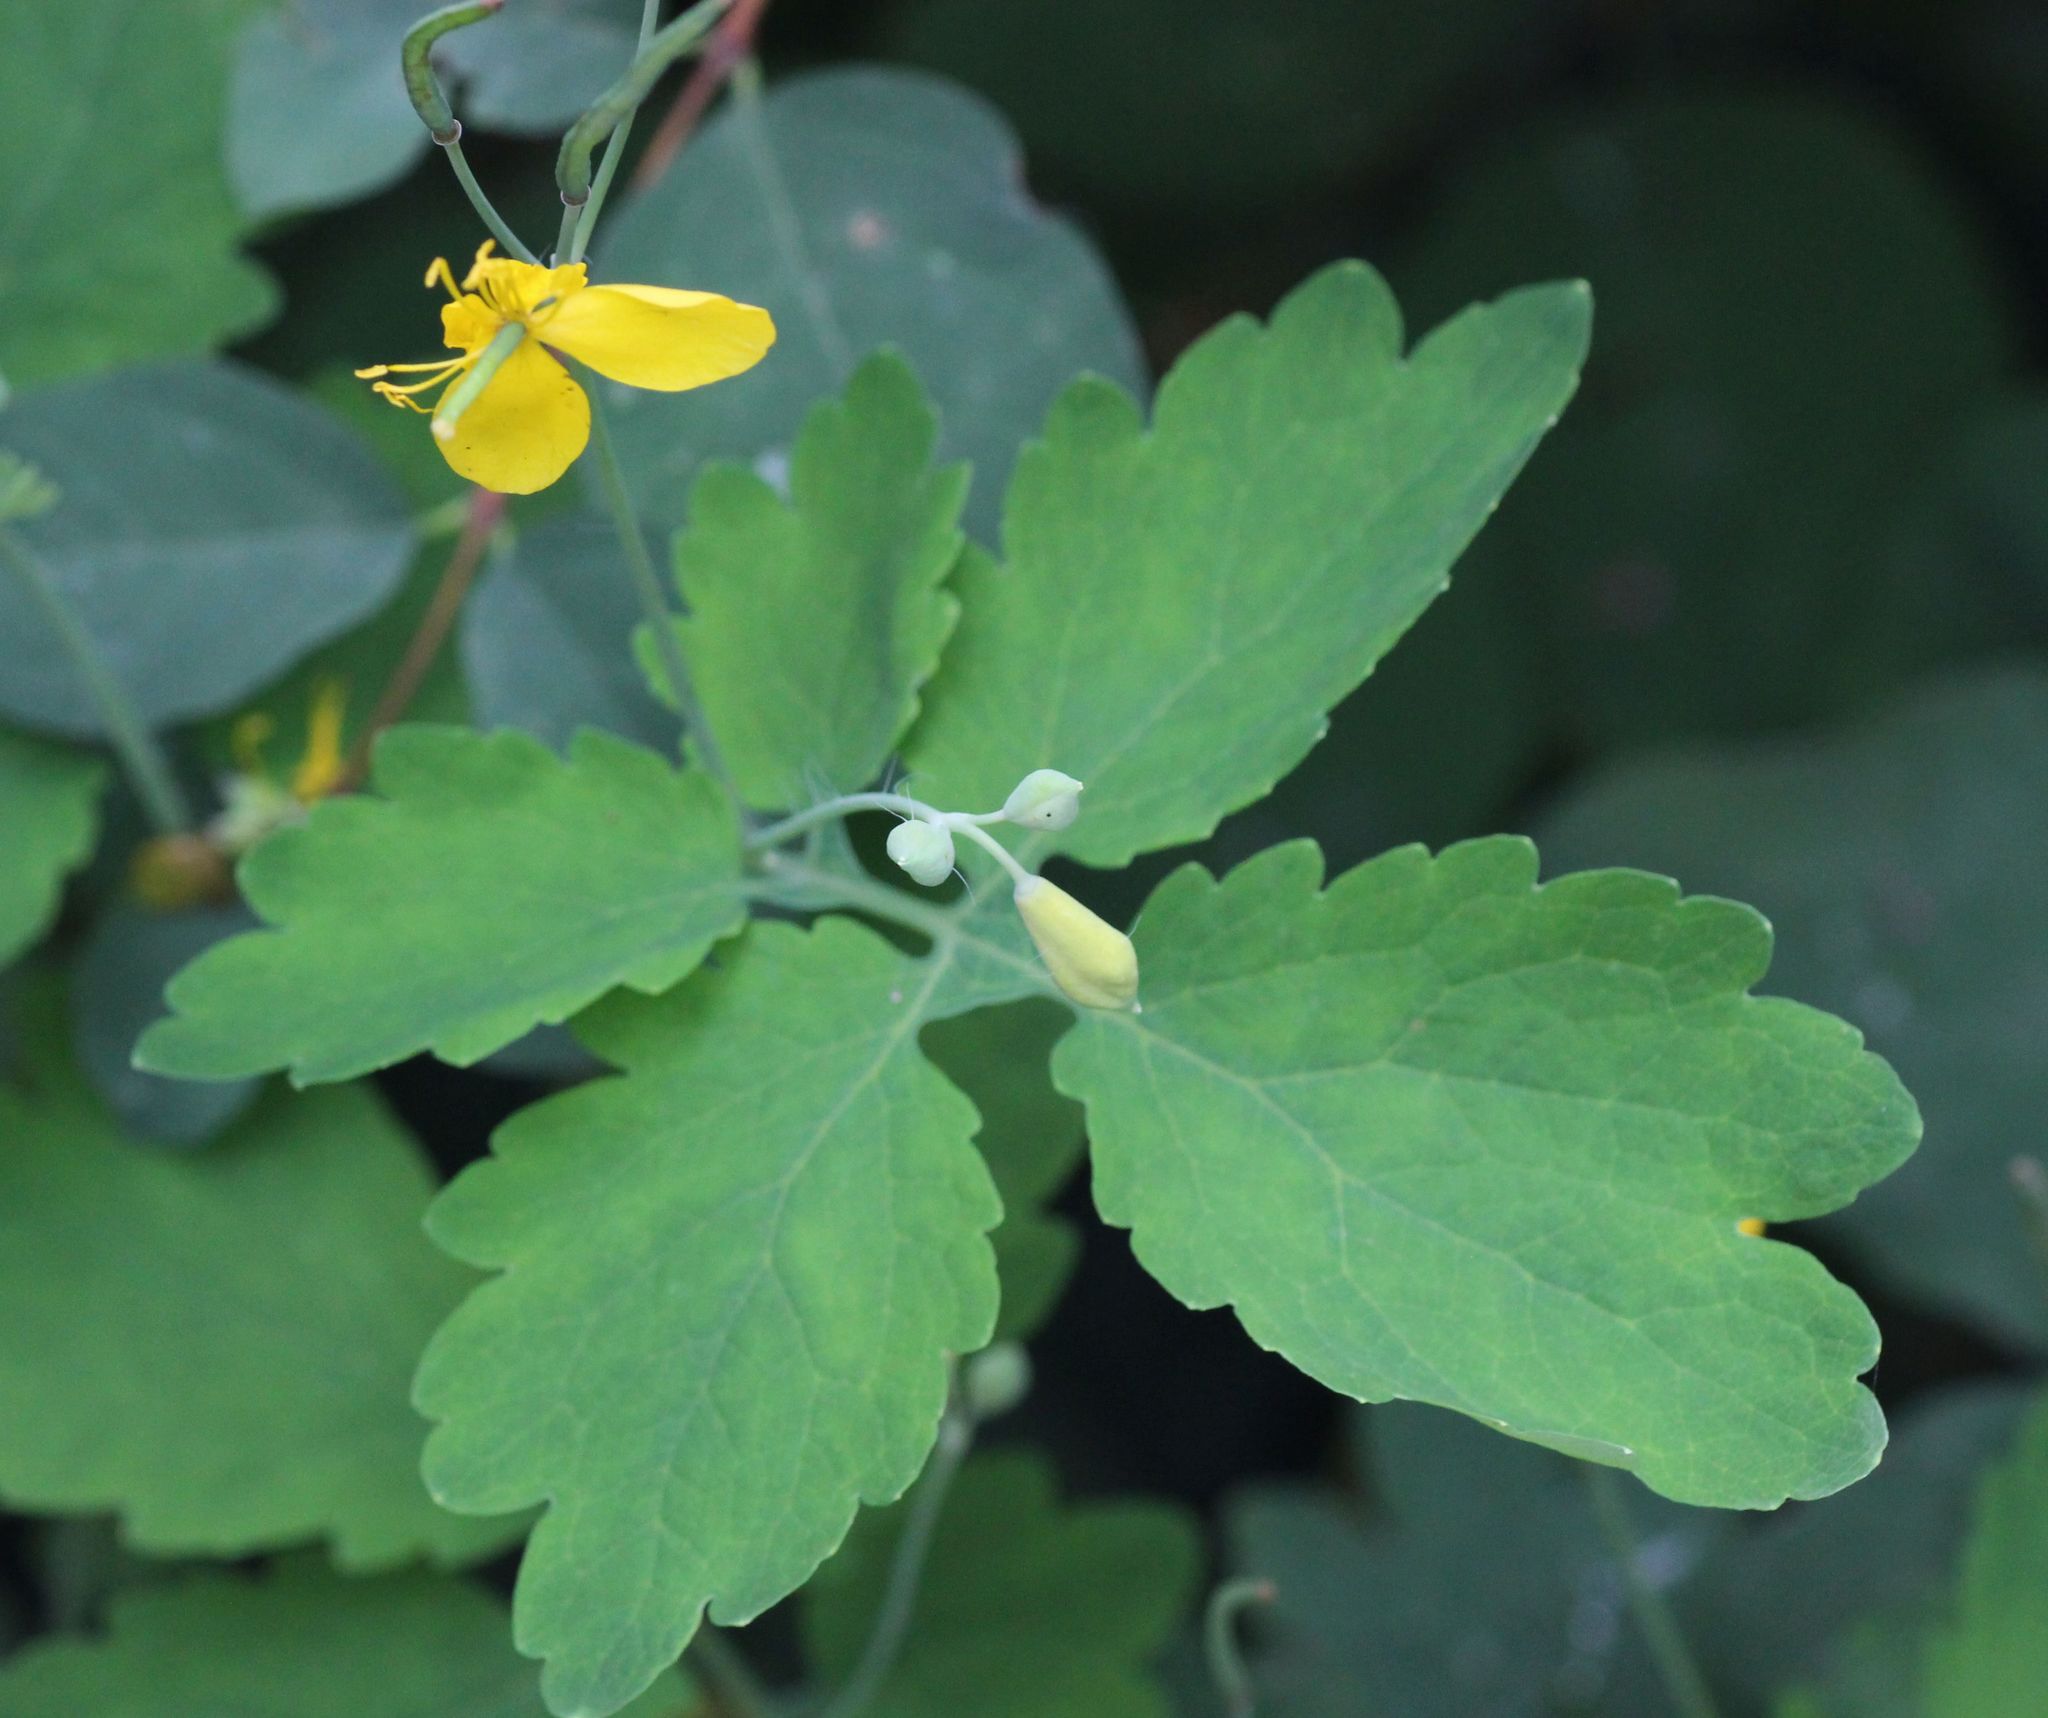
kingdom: Plantae
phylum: Tracheophyta
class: Magnoliopsida
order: Ranunculales
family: Papaveraceae
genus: Chelidonium
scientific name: Chelidonium majus
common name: Greater celandine
